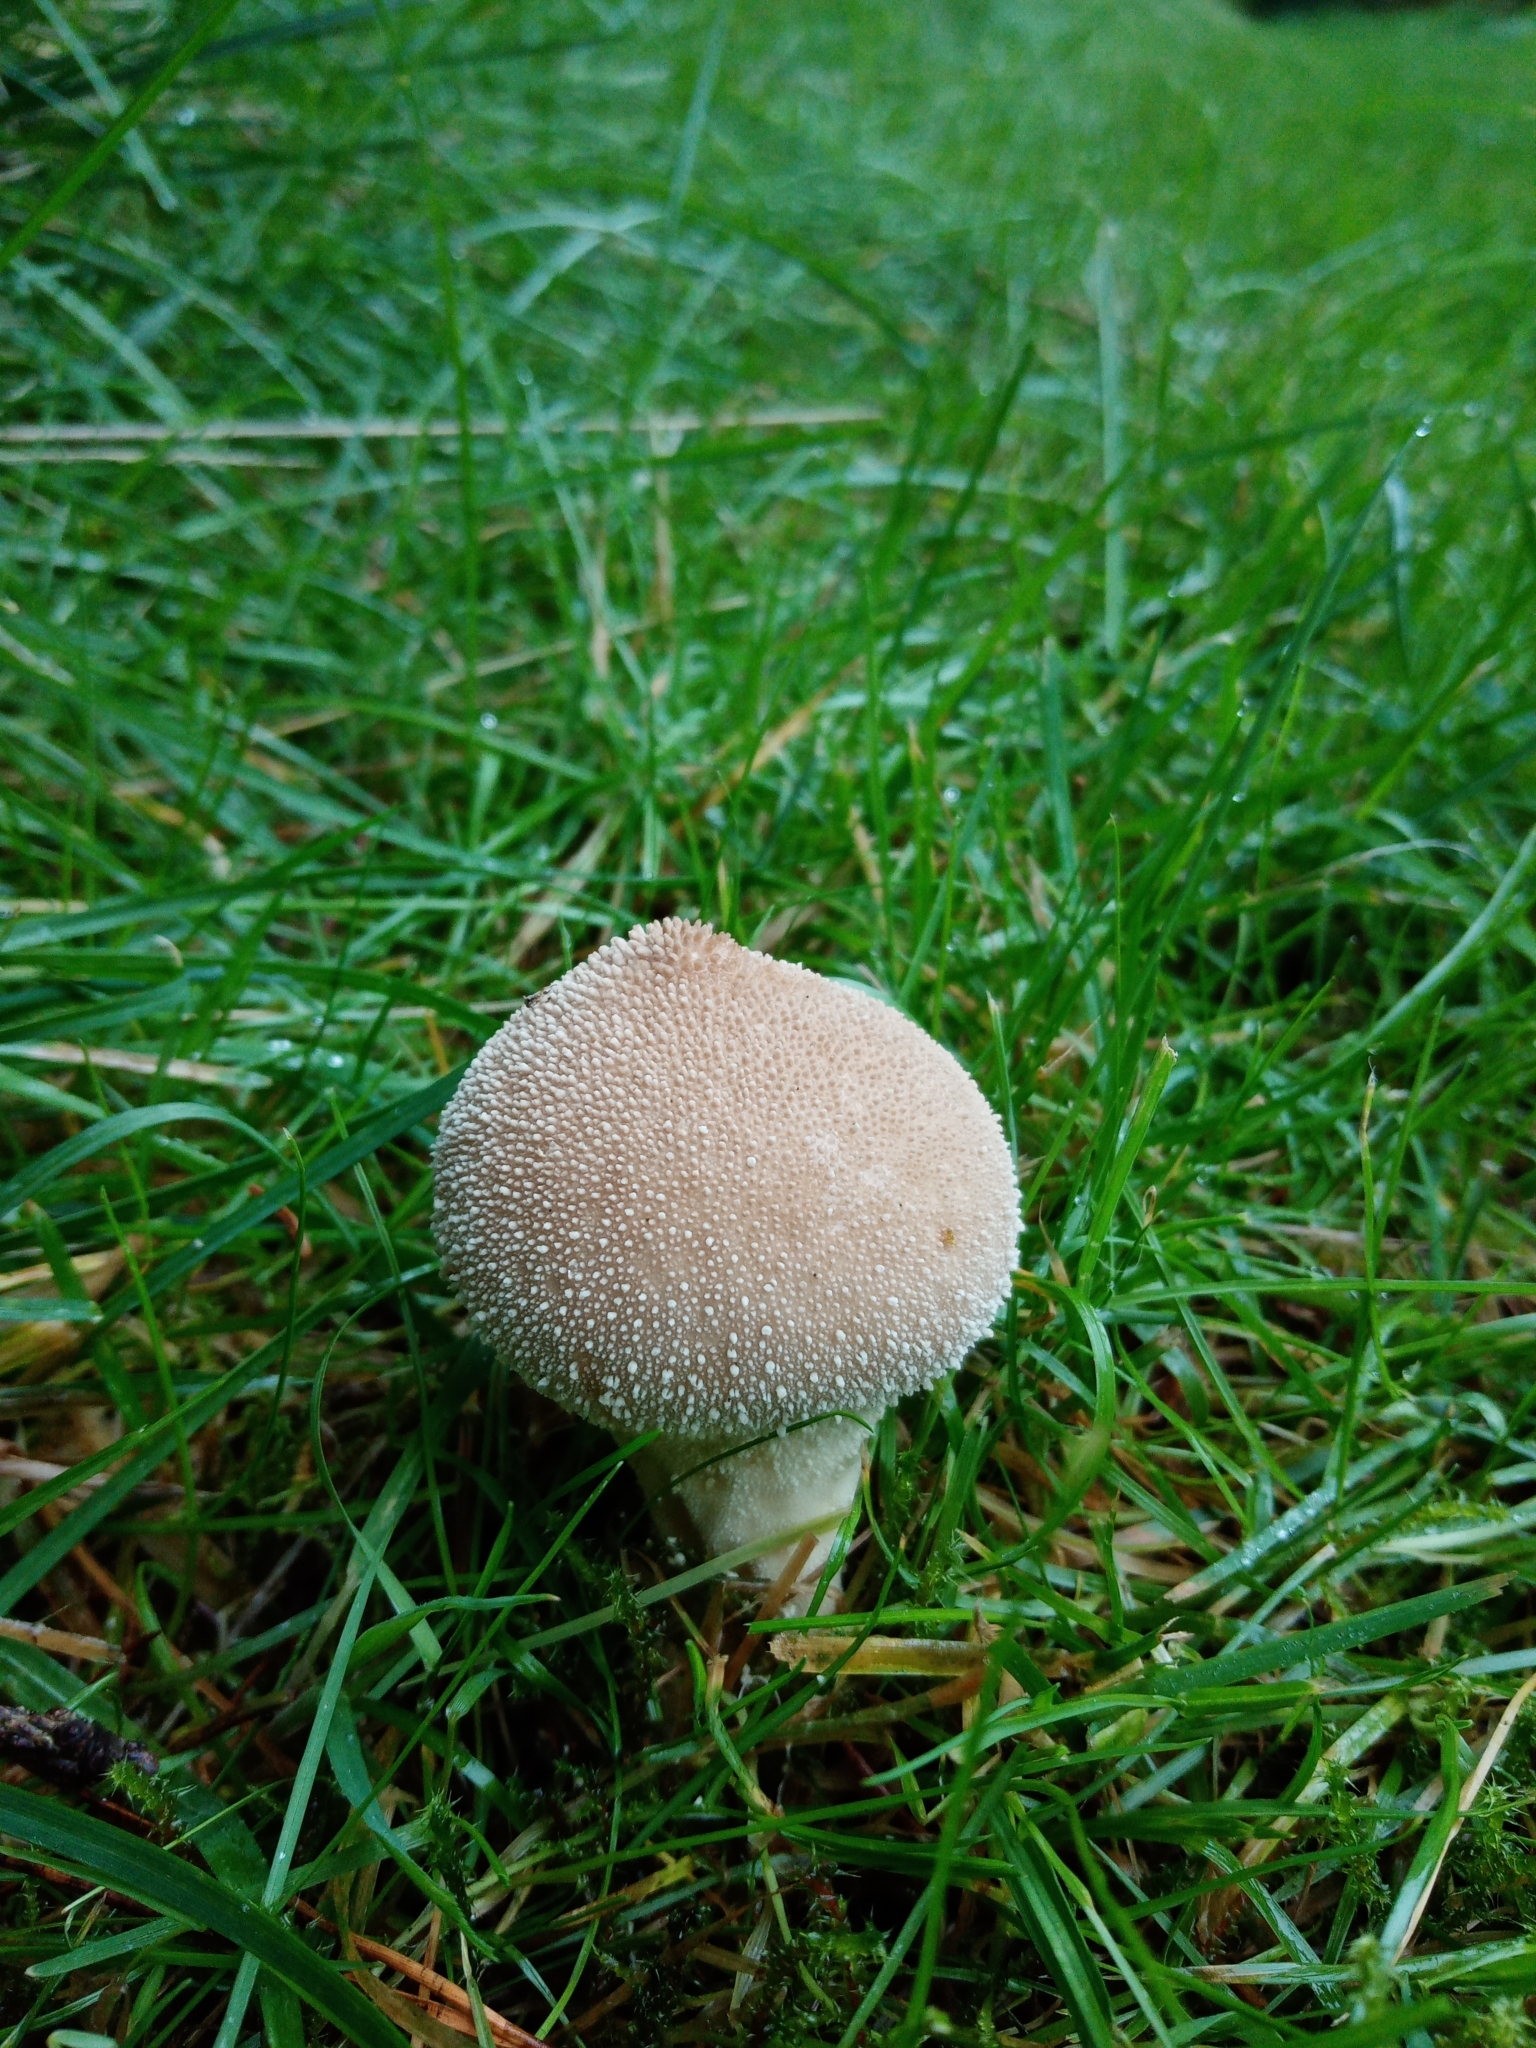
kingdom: Fungi
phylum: Basidiomycota
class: Agaricomycetes
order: Agaricales
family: Lycoperdaceae
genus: Lycoperdon
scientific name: Lycoperdon perlatum
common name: Common puffball
